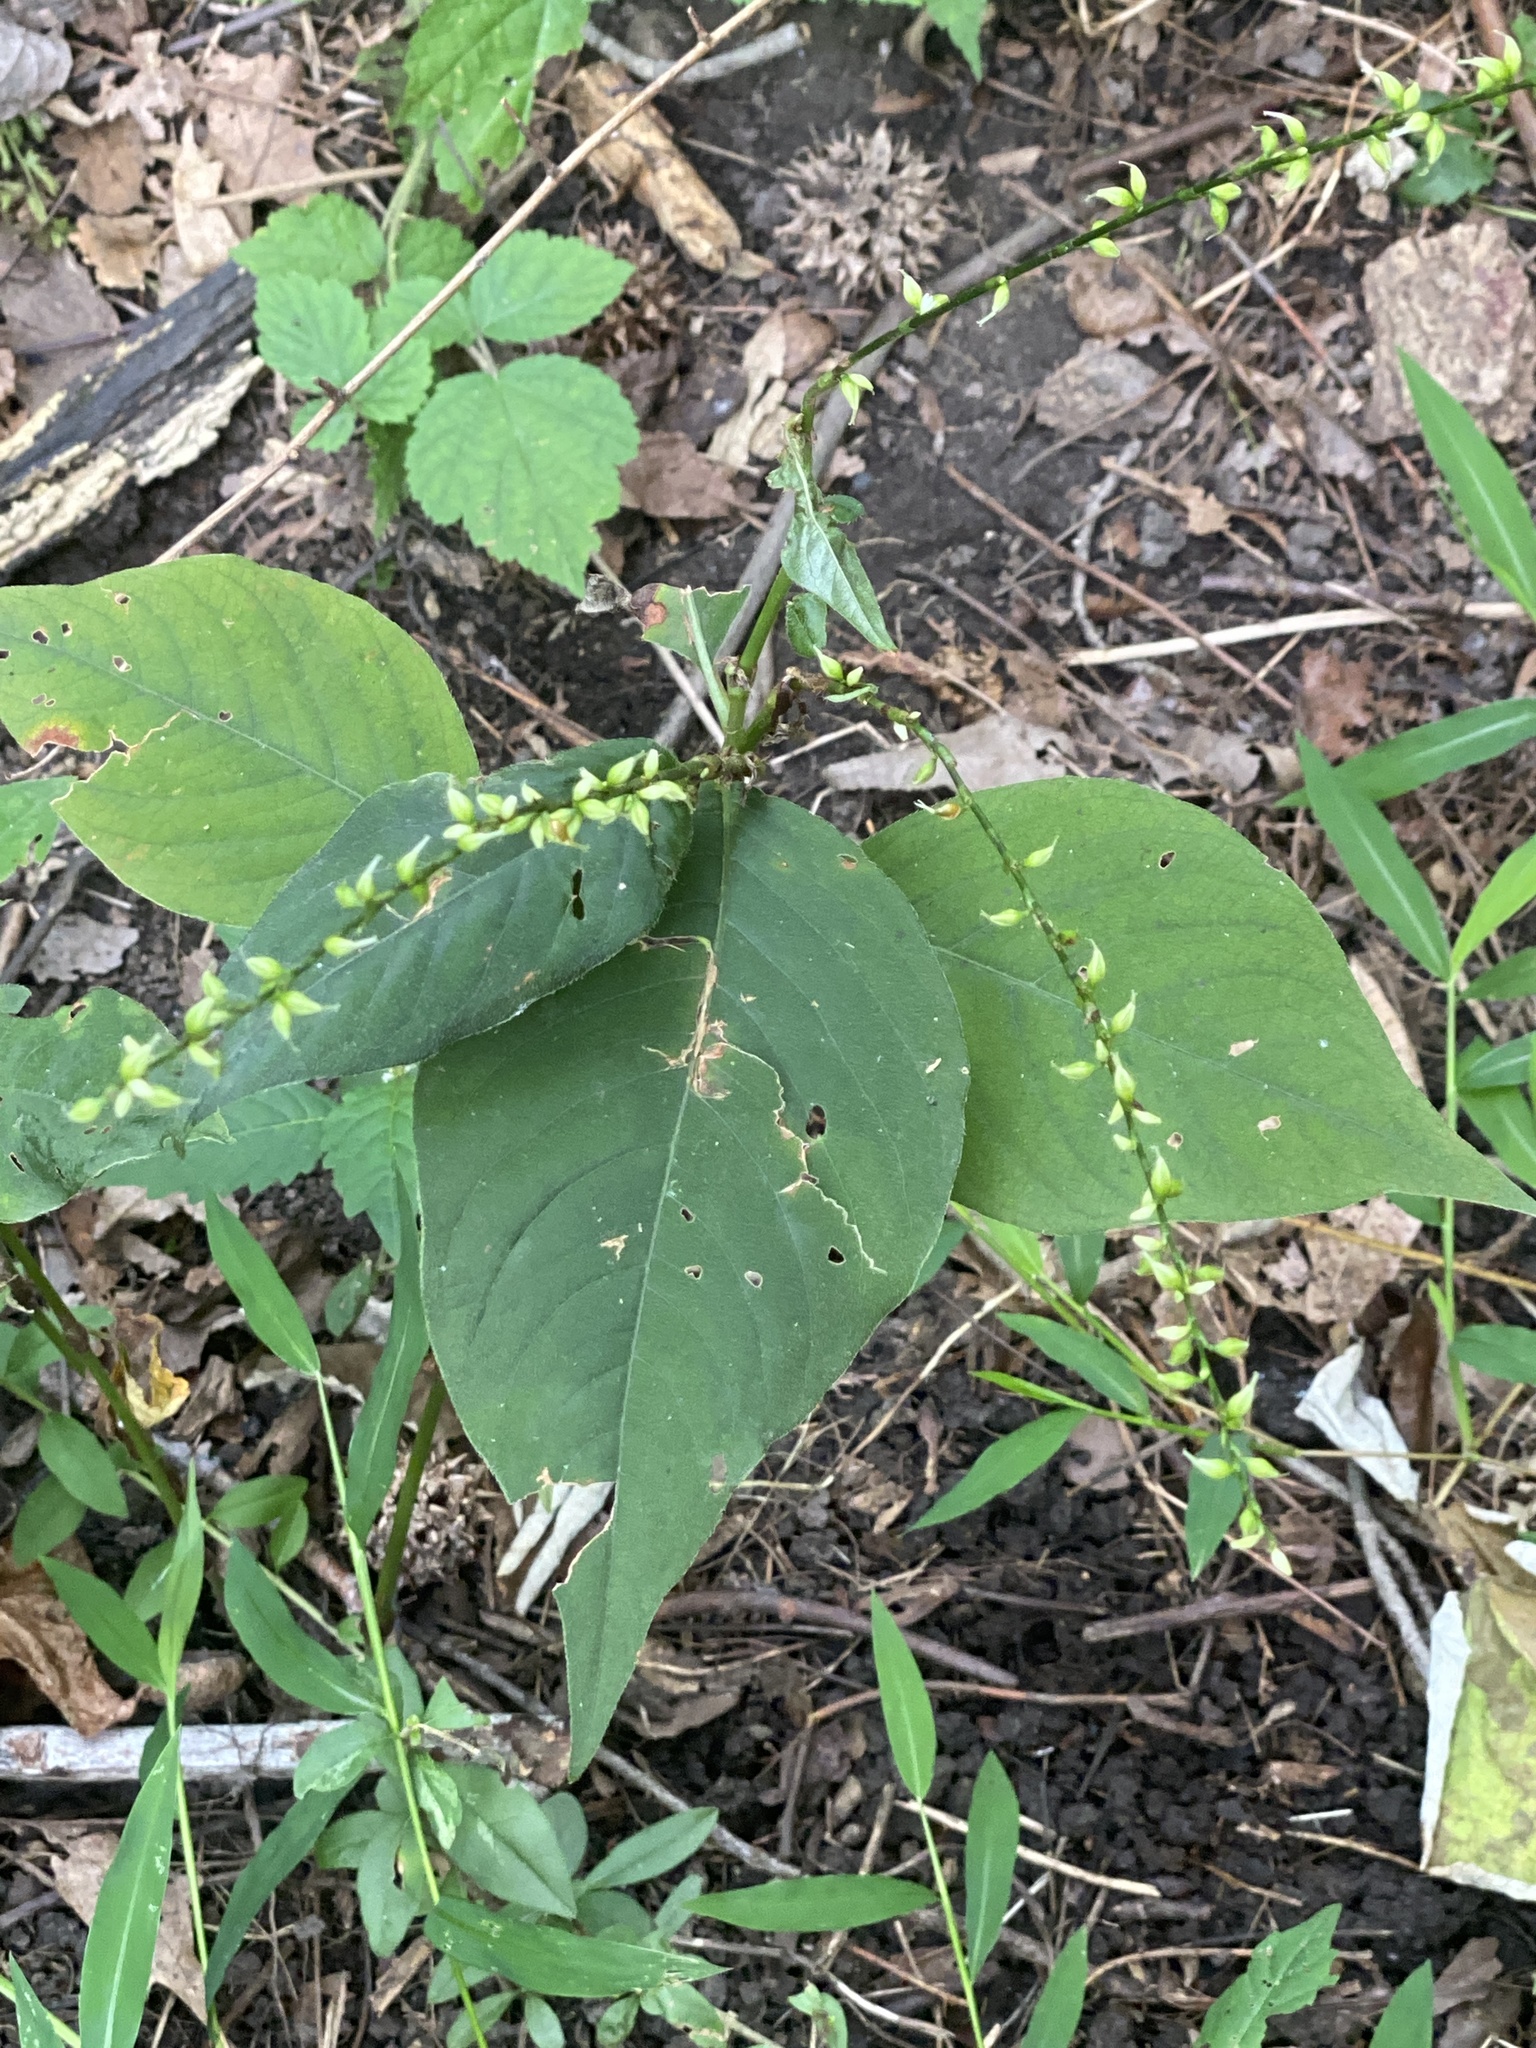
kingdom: Plantae
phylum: Tracheophyta
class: Magnoliopsida
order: Caryophyllales
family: Polygonaceae
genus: Persicaria
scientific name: Persicaria virginiana
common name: Jumpseed
